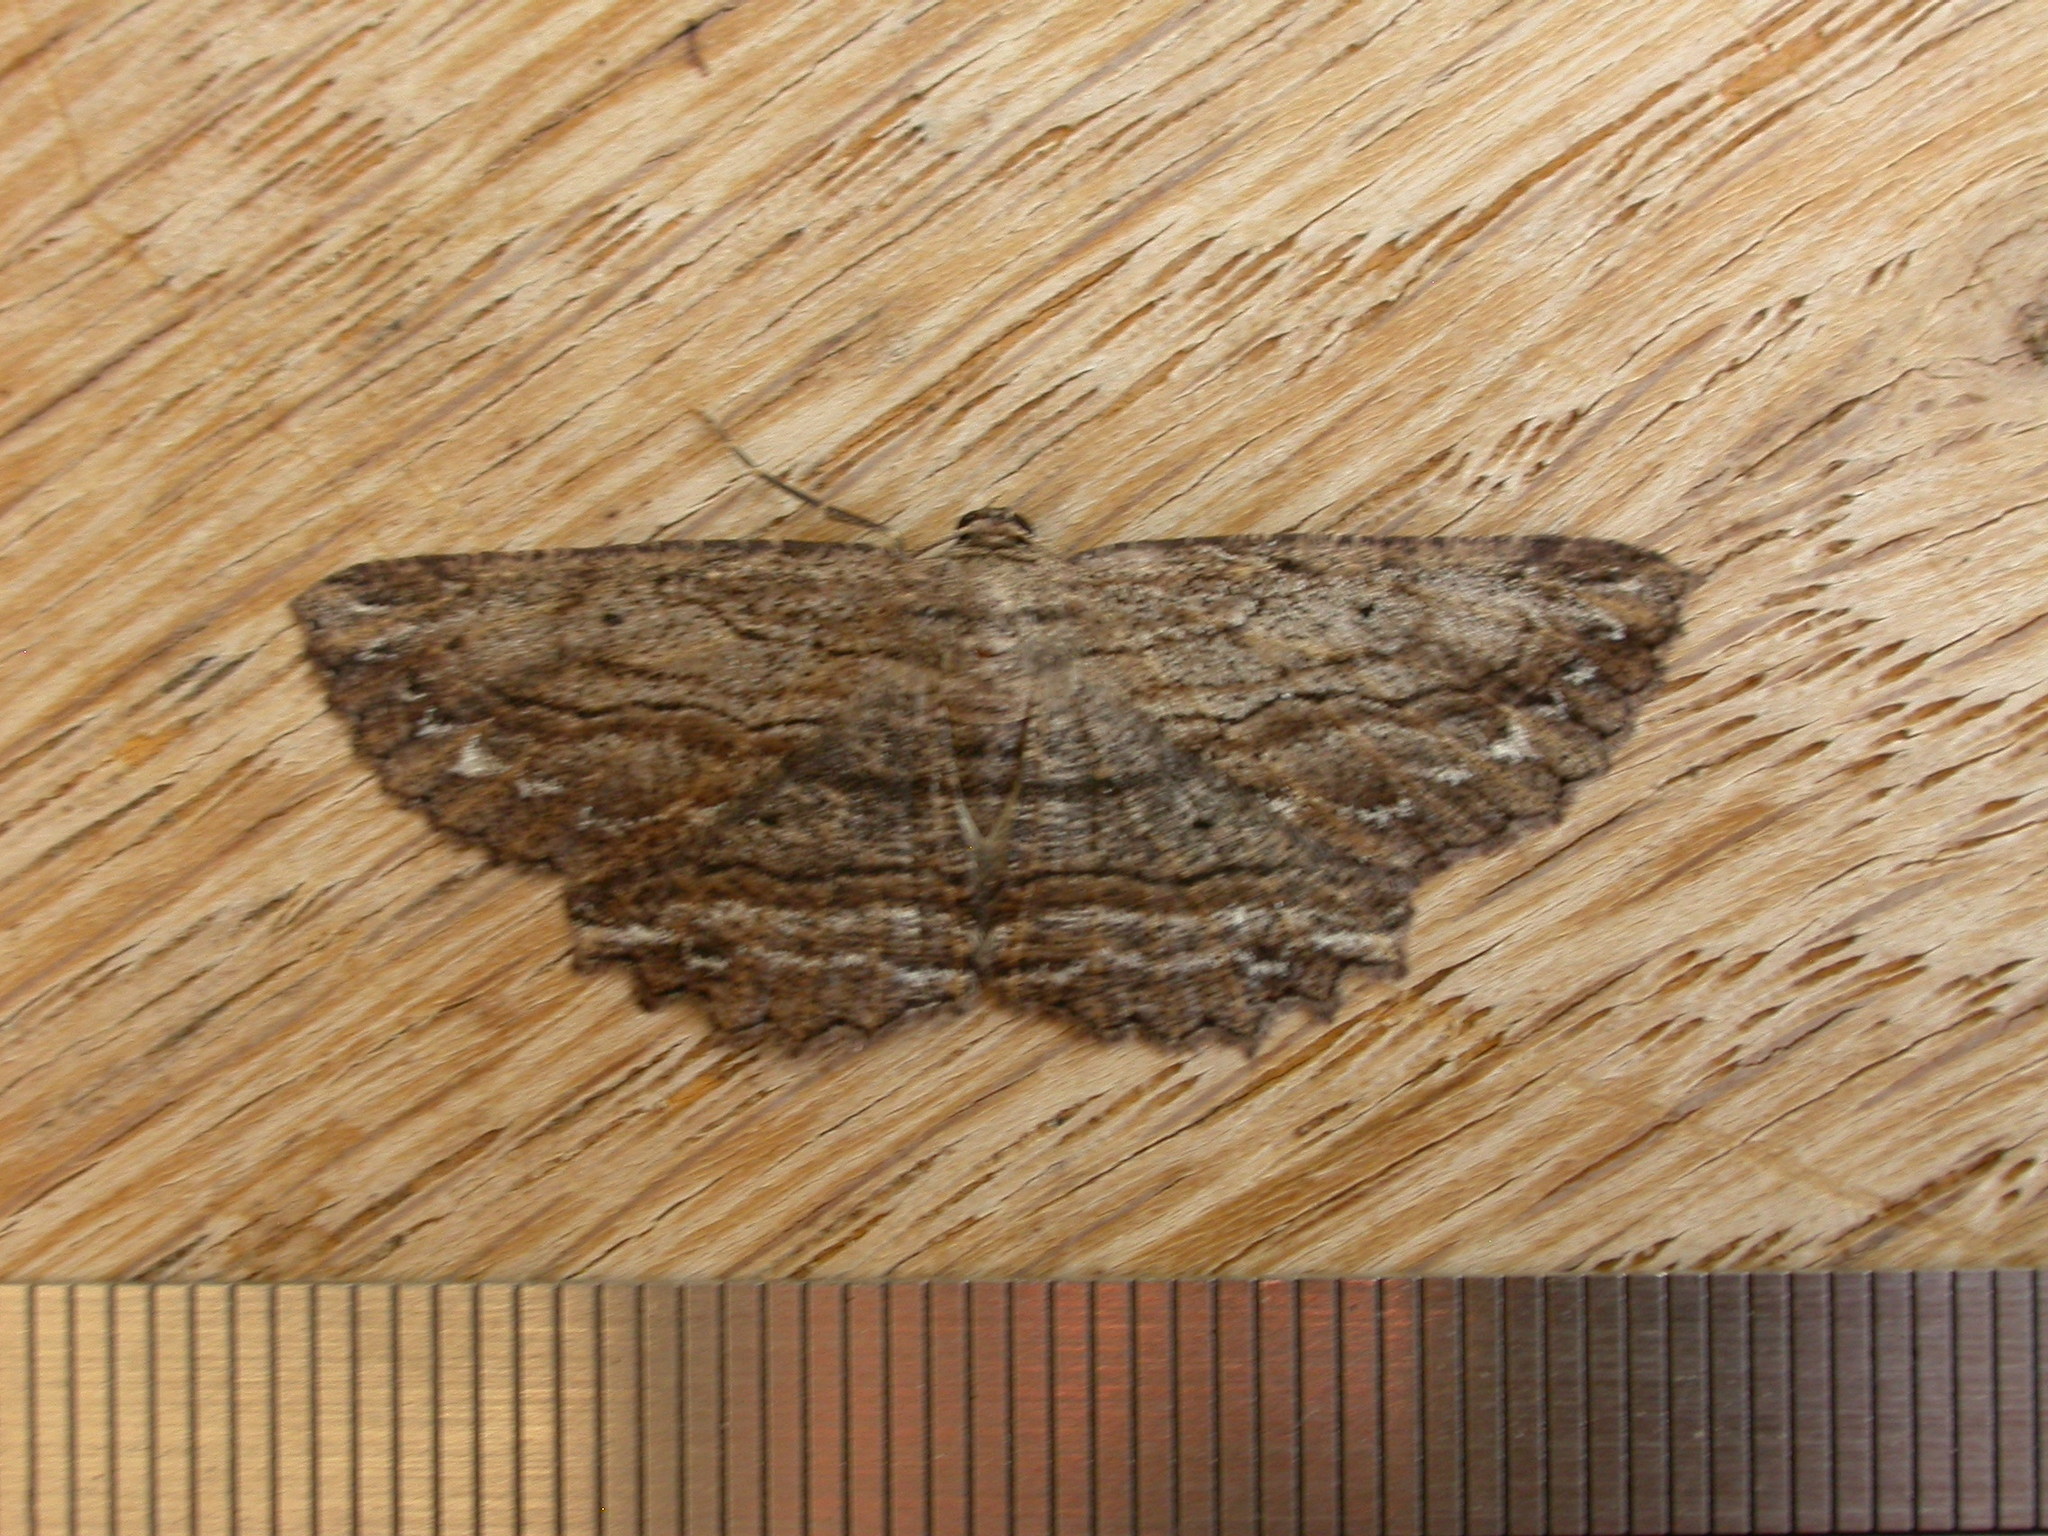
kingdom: Animalia
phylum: Arthropoda
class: Insecta
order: Lepidoptera
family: Geometridae
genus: Hypomecis
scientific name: Hypomecis agoraea
